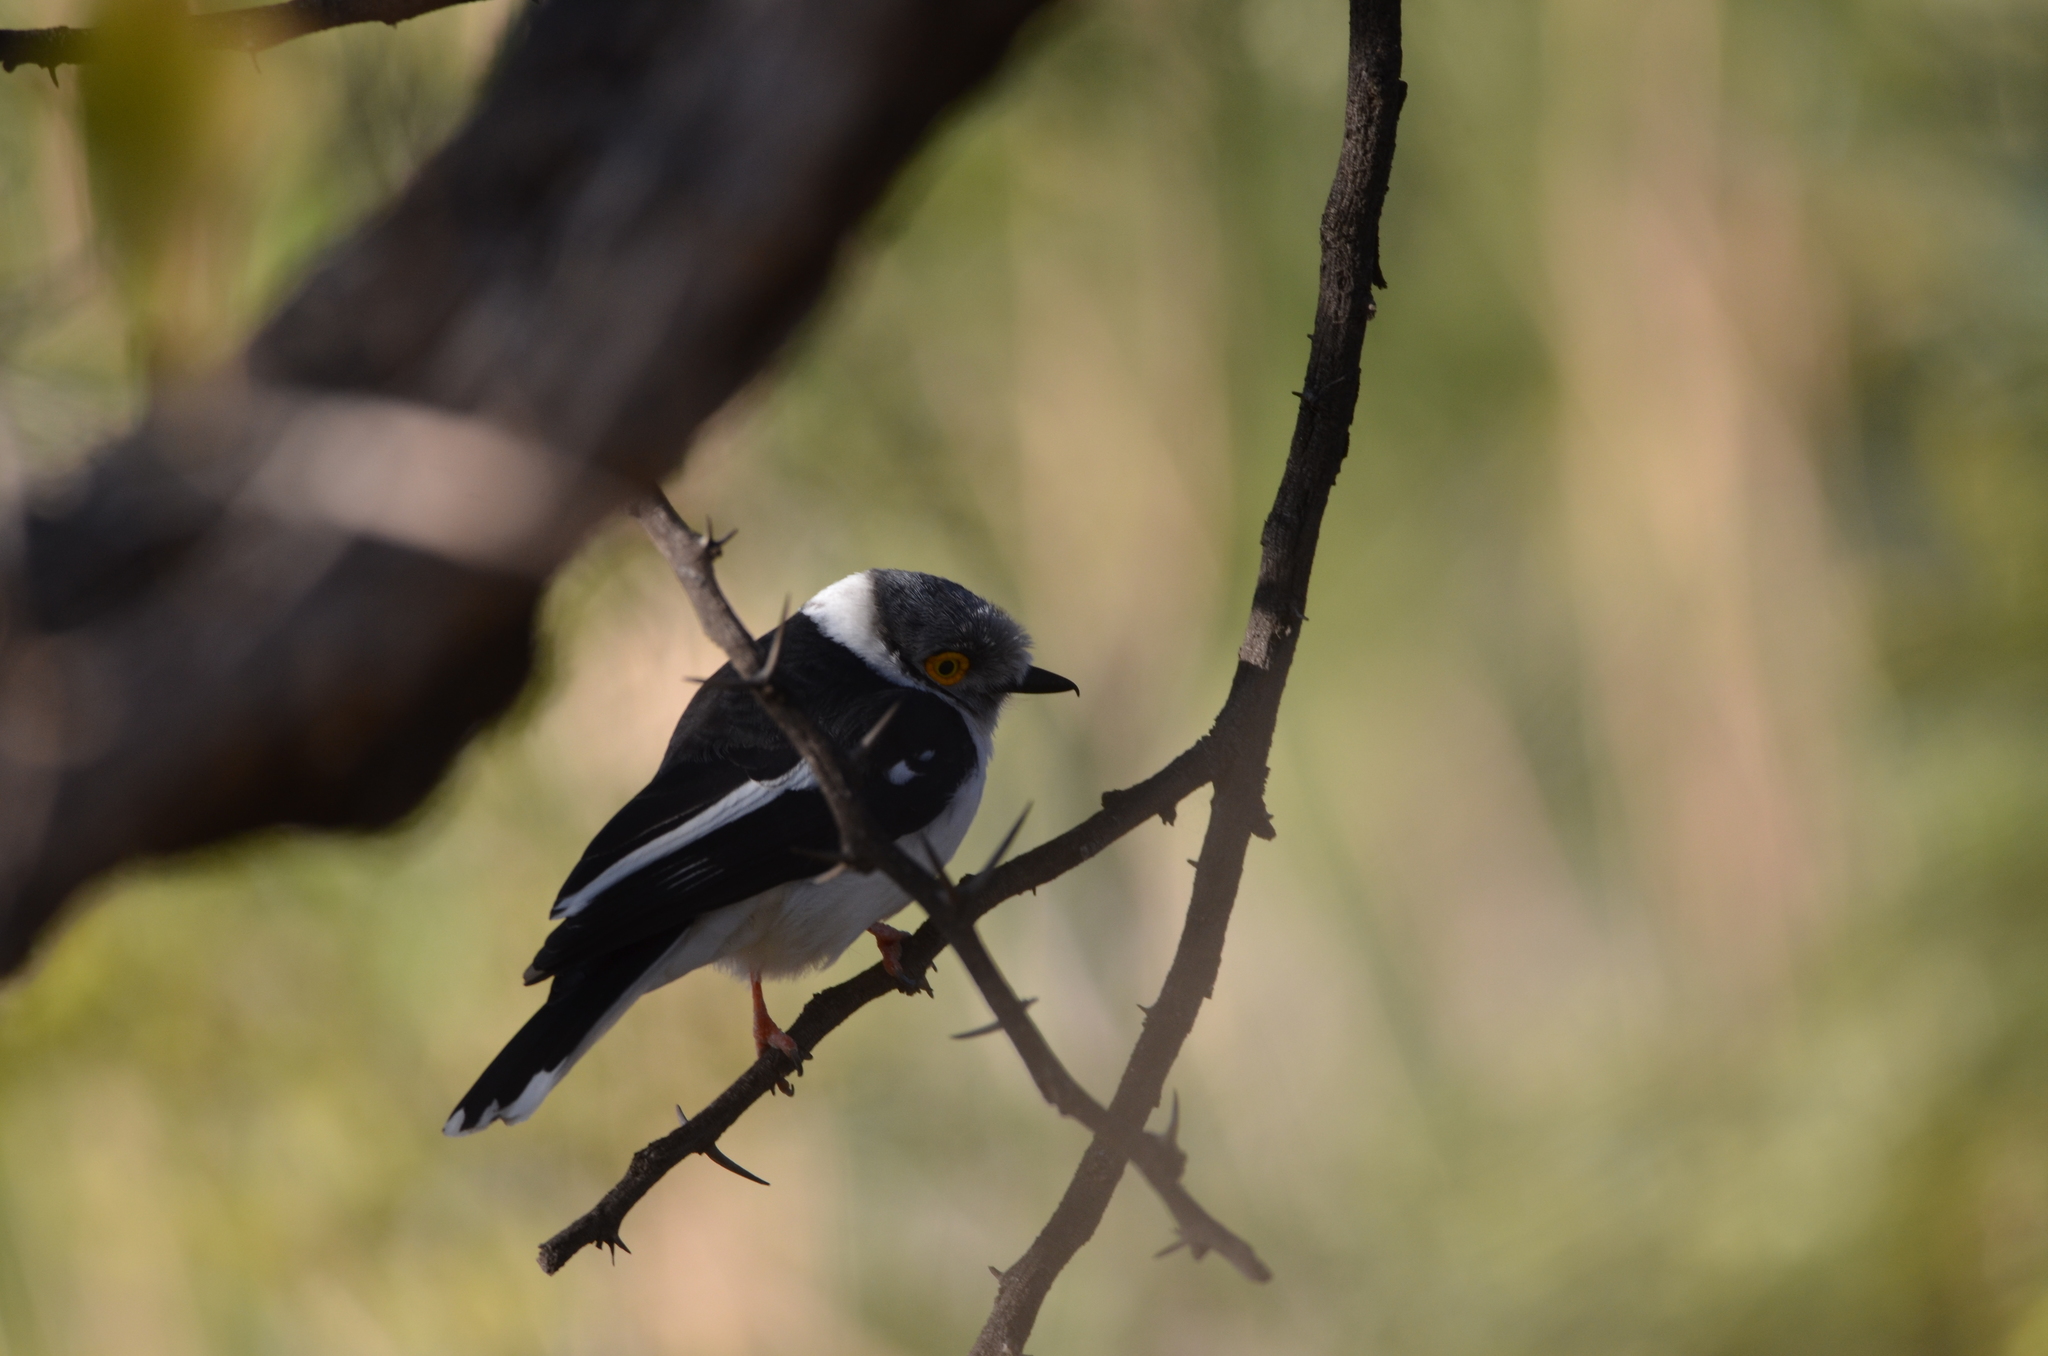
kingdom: Animalia
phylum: Chordata
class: Aves
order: Passeriformes
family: Prionopidae
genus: Prionops
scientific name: Prionops plumatus
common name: White-crested helmetshrike
